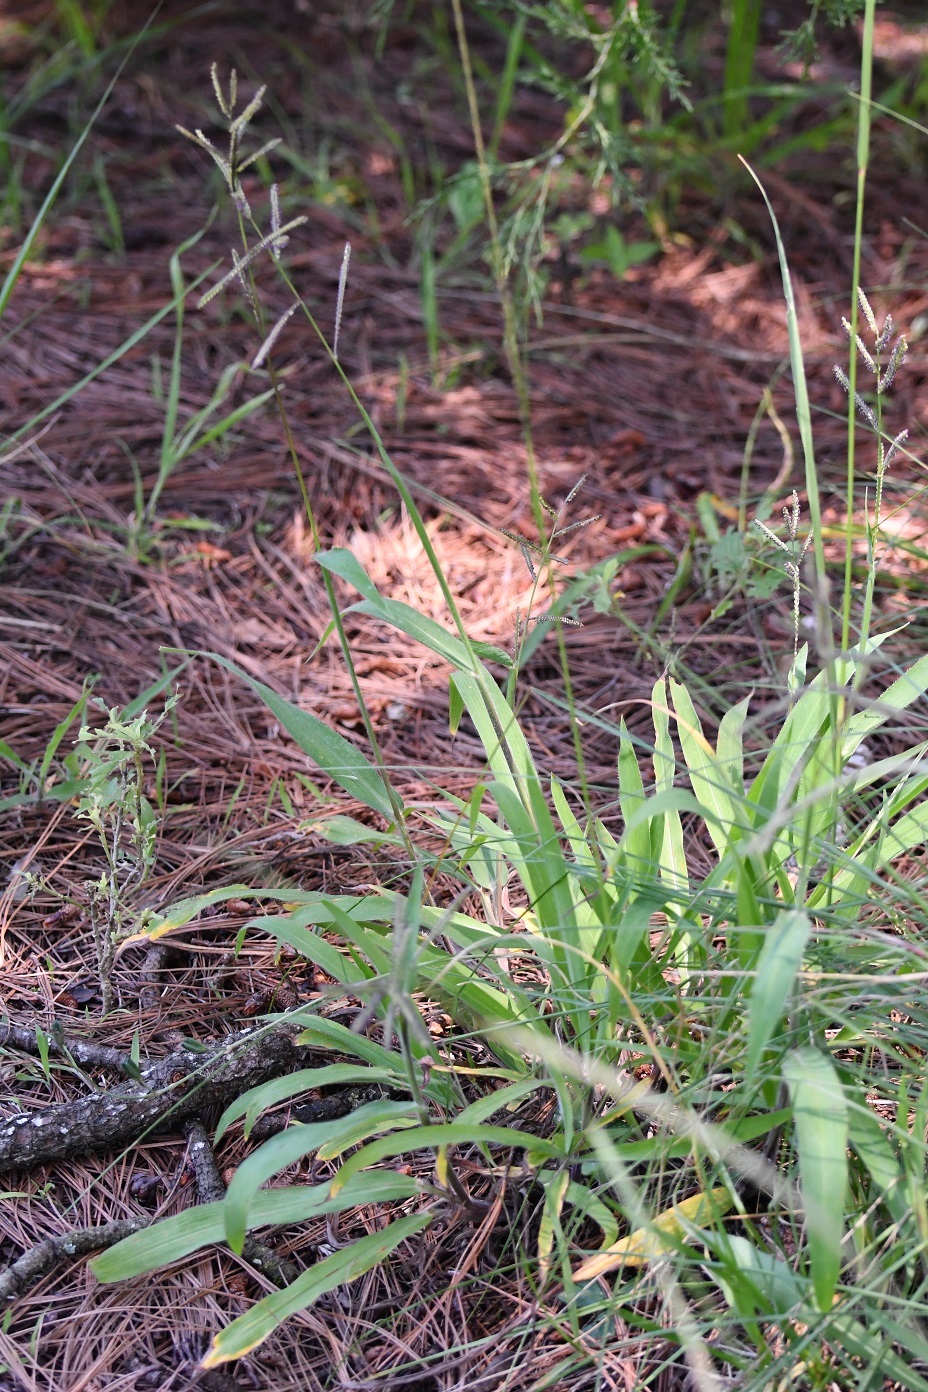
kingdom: Plantae
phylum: Tracheophyta
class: Liliopsida
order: Poales
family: Poaceae
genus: Paspalum
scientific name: Paspalum chiapense
